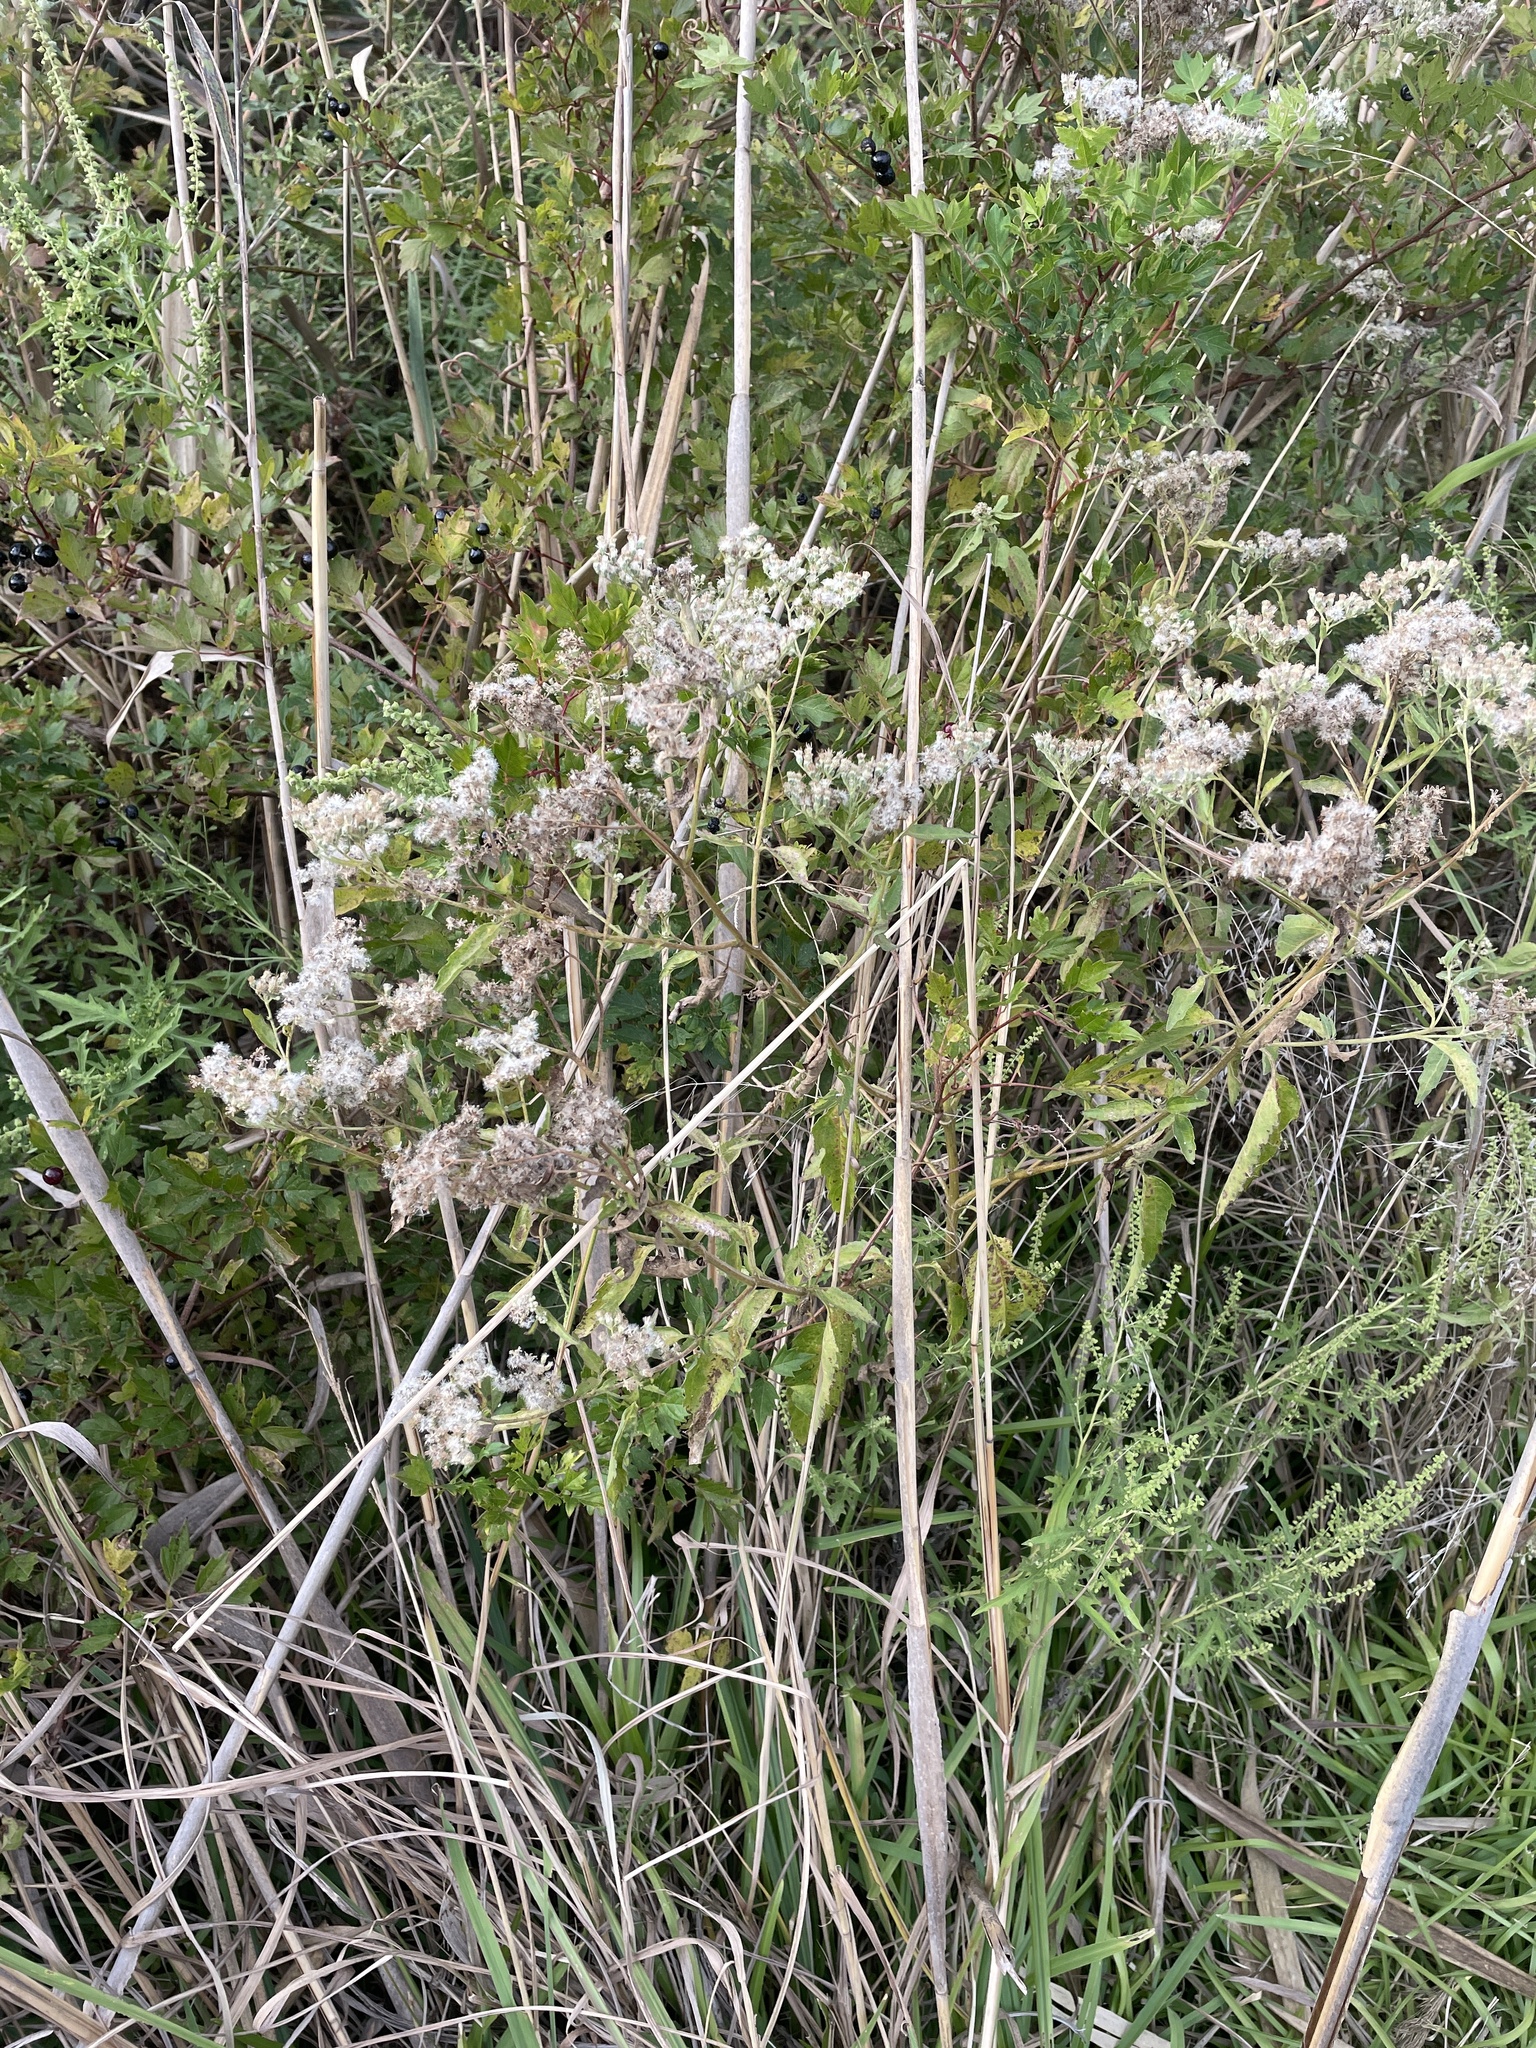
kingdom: Plantae
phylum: Tracheophyta
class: Magnoliopsida
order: Asterales
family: Asteraceae
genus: Eupatorium
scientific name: Eupatorium serotinum
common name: Late boneset
